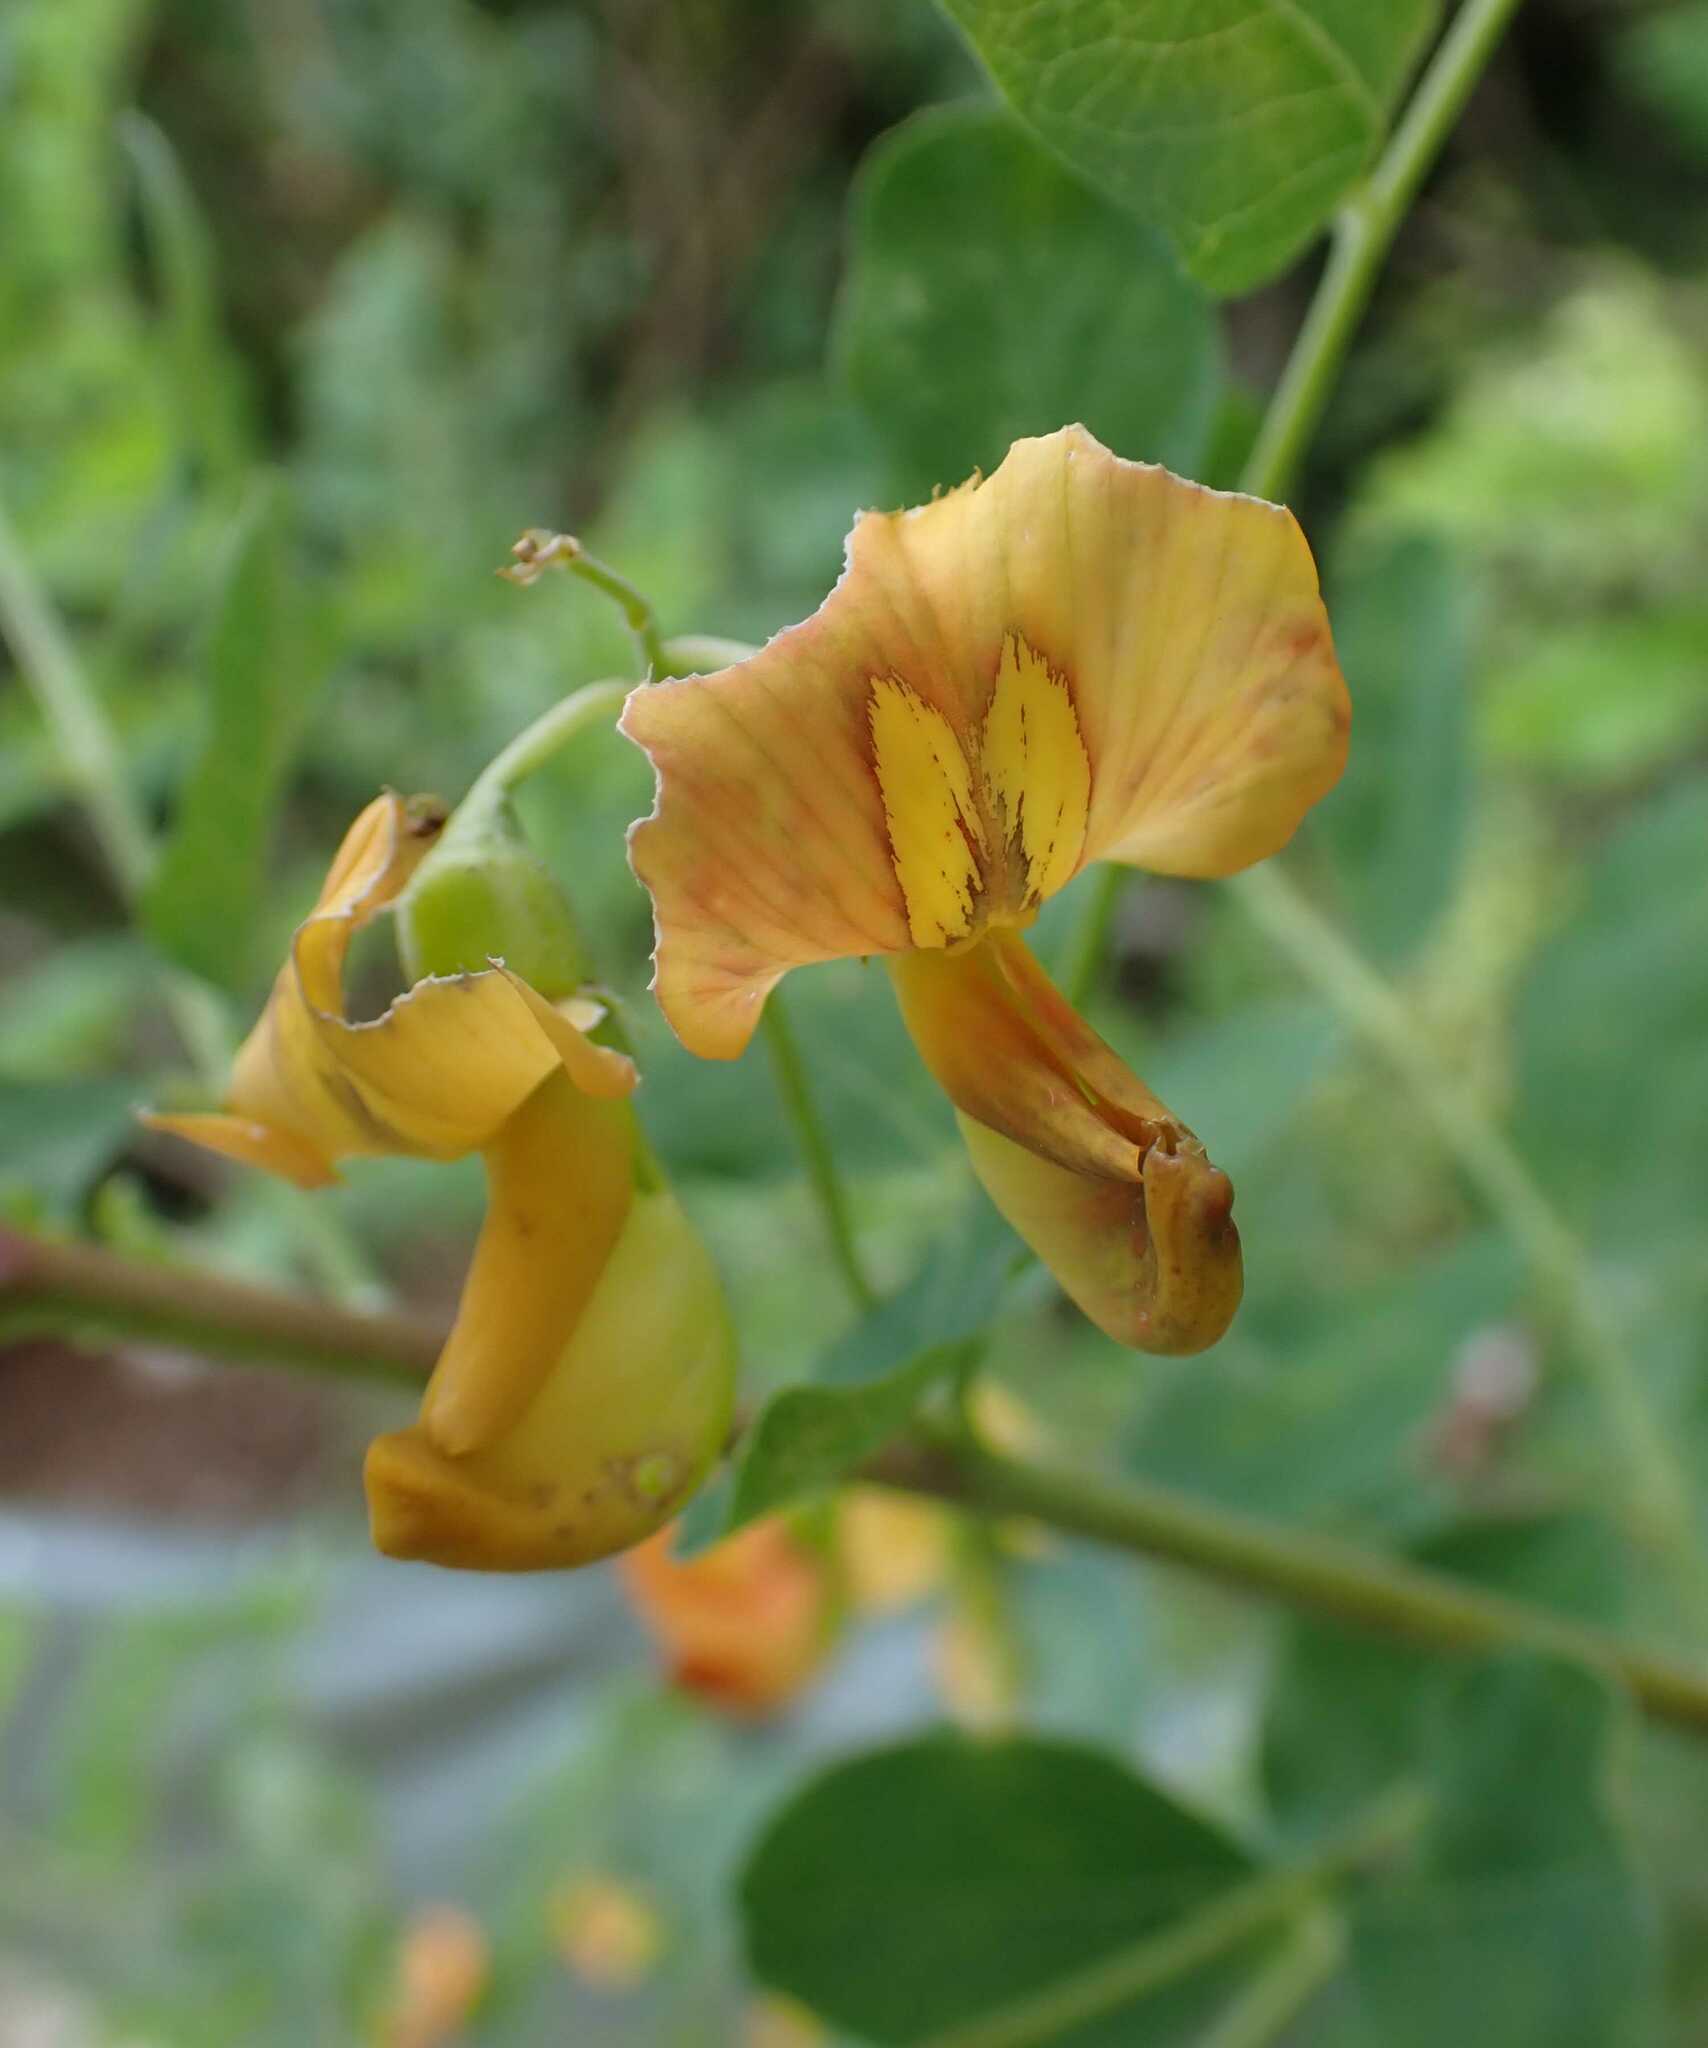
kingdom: Plantae
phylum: Tracheophyta
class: Magnoliopsida
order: Fabales
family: Fabaceae
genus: Colutea
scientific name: Colutea arborescens
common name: Bladder-senna
